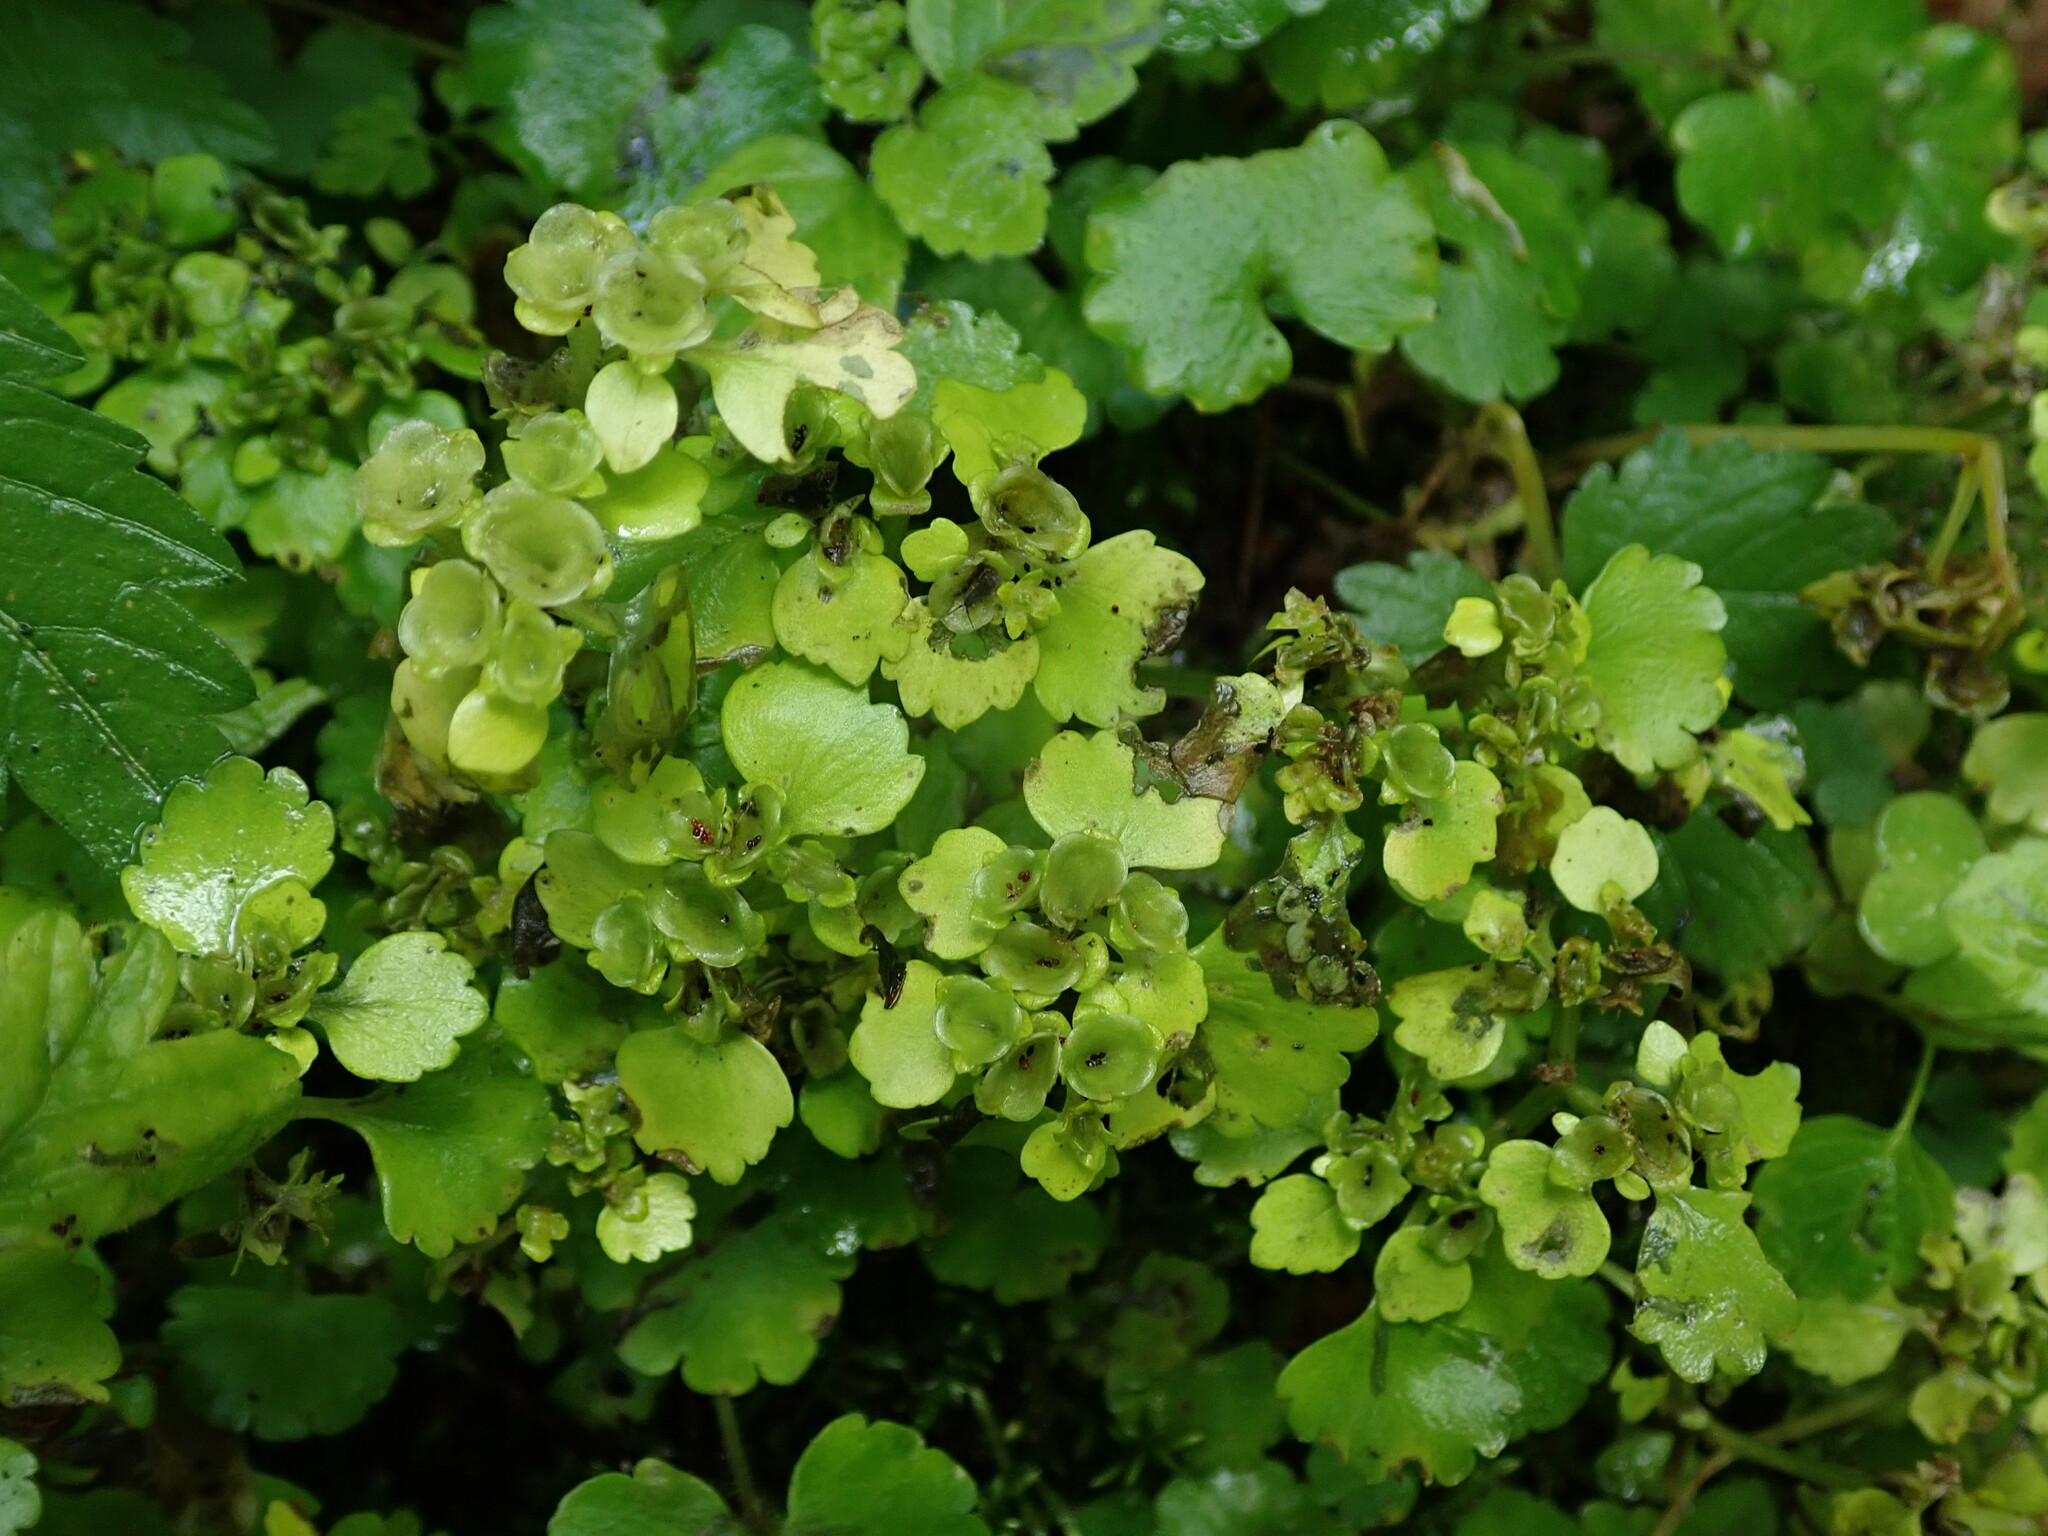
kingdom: Plantae
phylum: Tracheophyta
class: Magnoliopsida
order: Saxifragales
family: Saxifragaceae
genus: Chrysosplenium
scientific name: Chrysosplenium alternifolium
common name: Alternate-leaved golden-saxifrage
